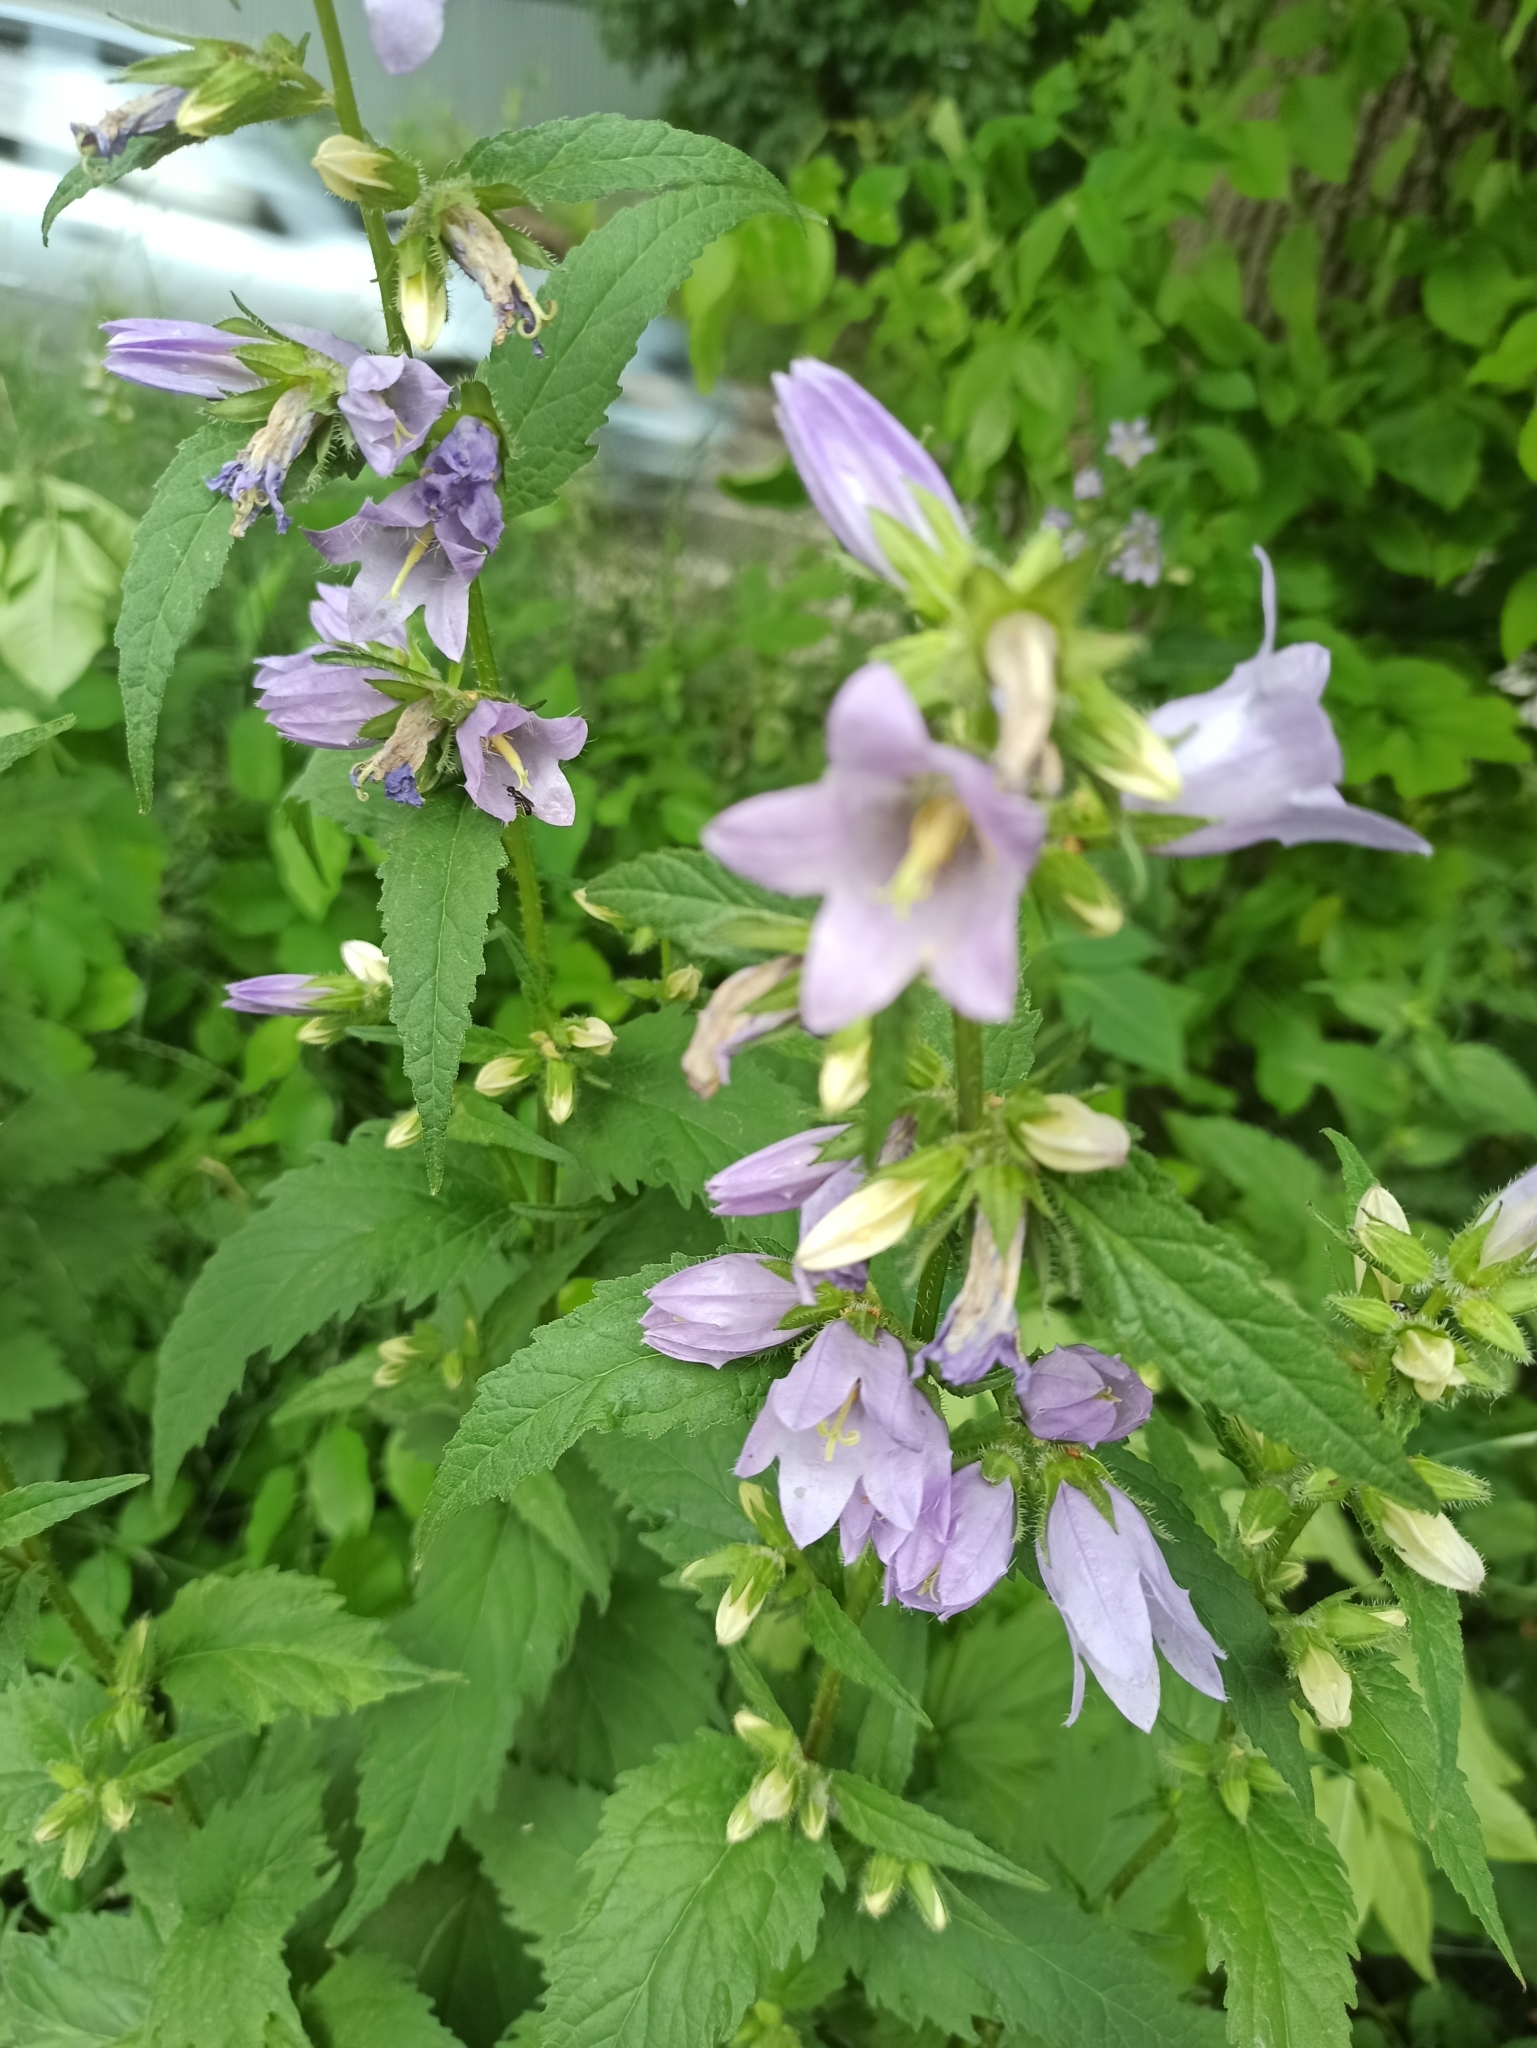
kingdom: Plantae
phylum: Tracheophyta
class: Magnoliopsida
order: Asterales
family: Campanulaceae
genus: Campanula
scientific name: Campanula trachelium
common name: Nettle-leaved bellflower
